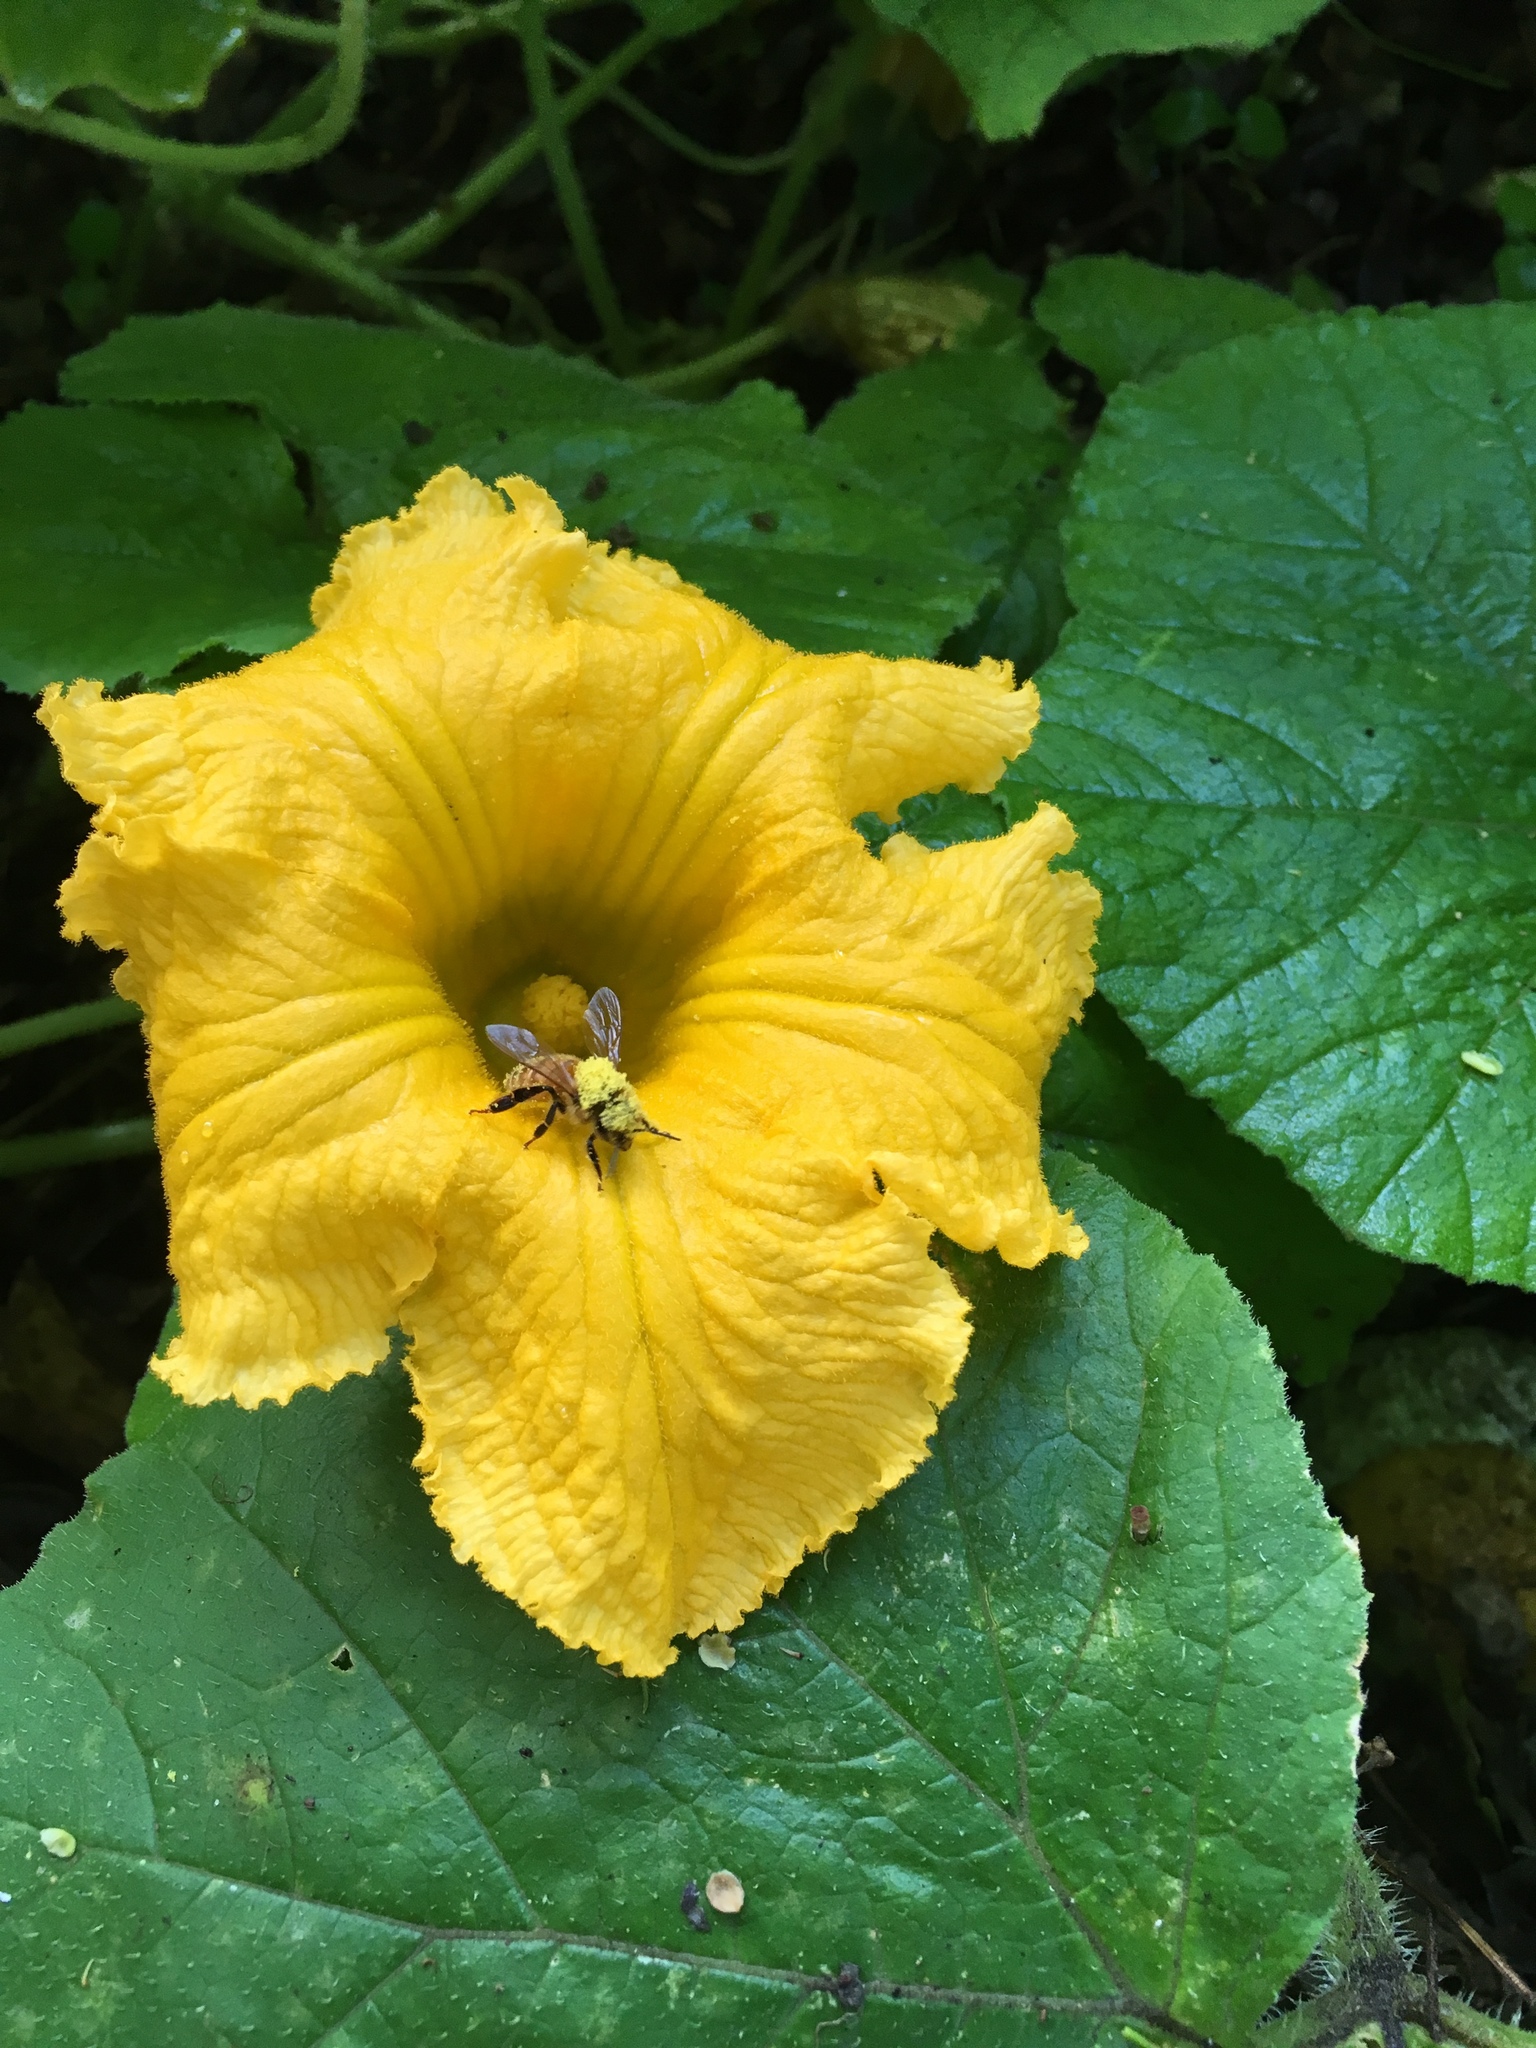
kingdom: Animalia
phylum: Arthropoda
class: Insecta
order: Hymenoptera
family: Apidae
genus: Apis
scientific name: Apis mellifera
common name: Honey bee
